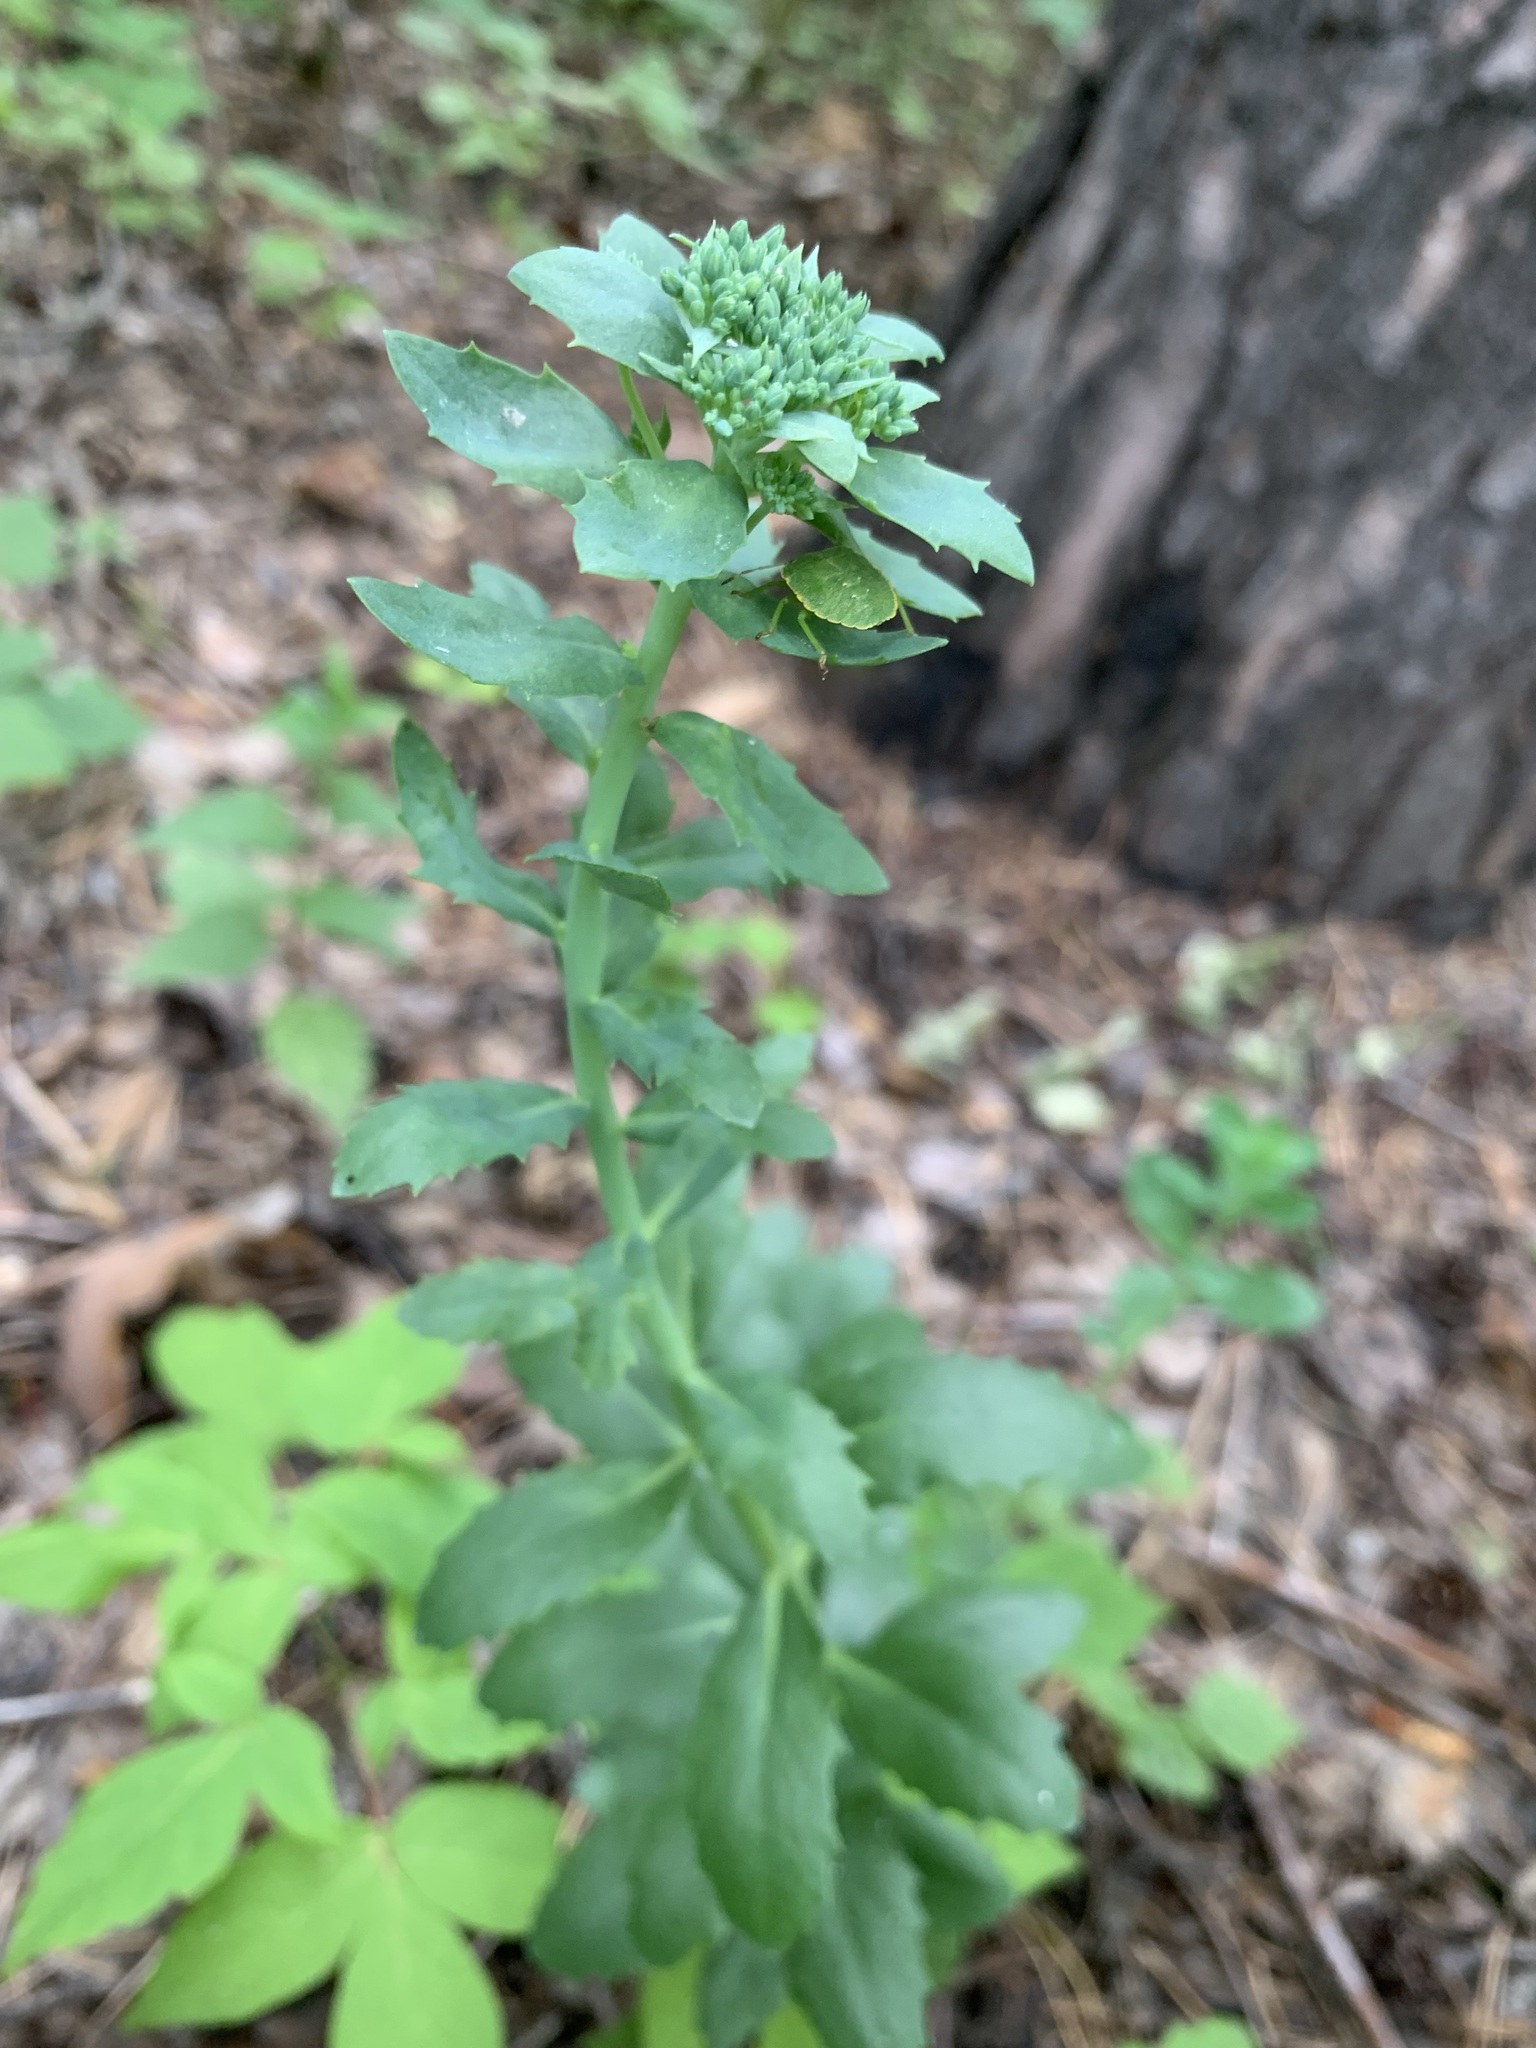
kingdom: Plantae
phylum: Tracheophyta
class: Magnoliopsida
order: Saxifragales
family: Crassulaceae
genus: Hylotelephium
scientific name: Hylotelephium telephium
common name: Live-forever
